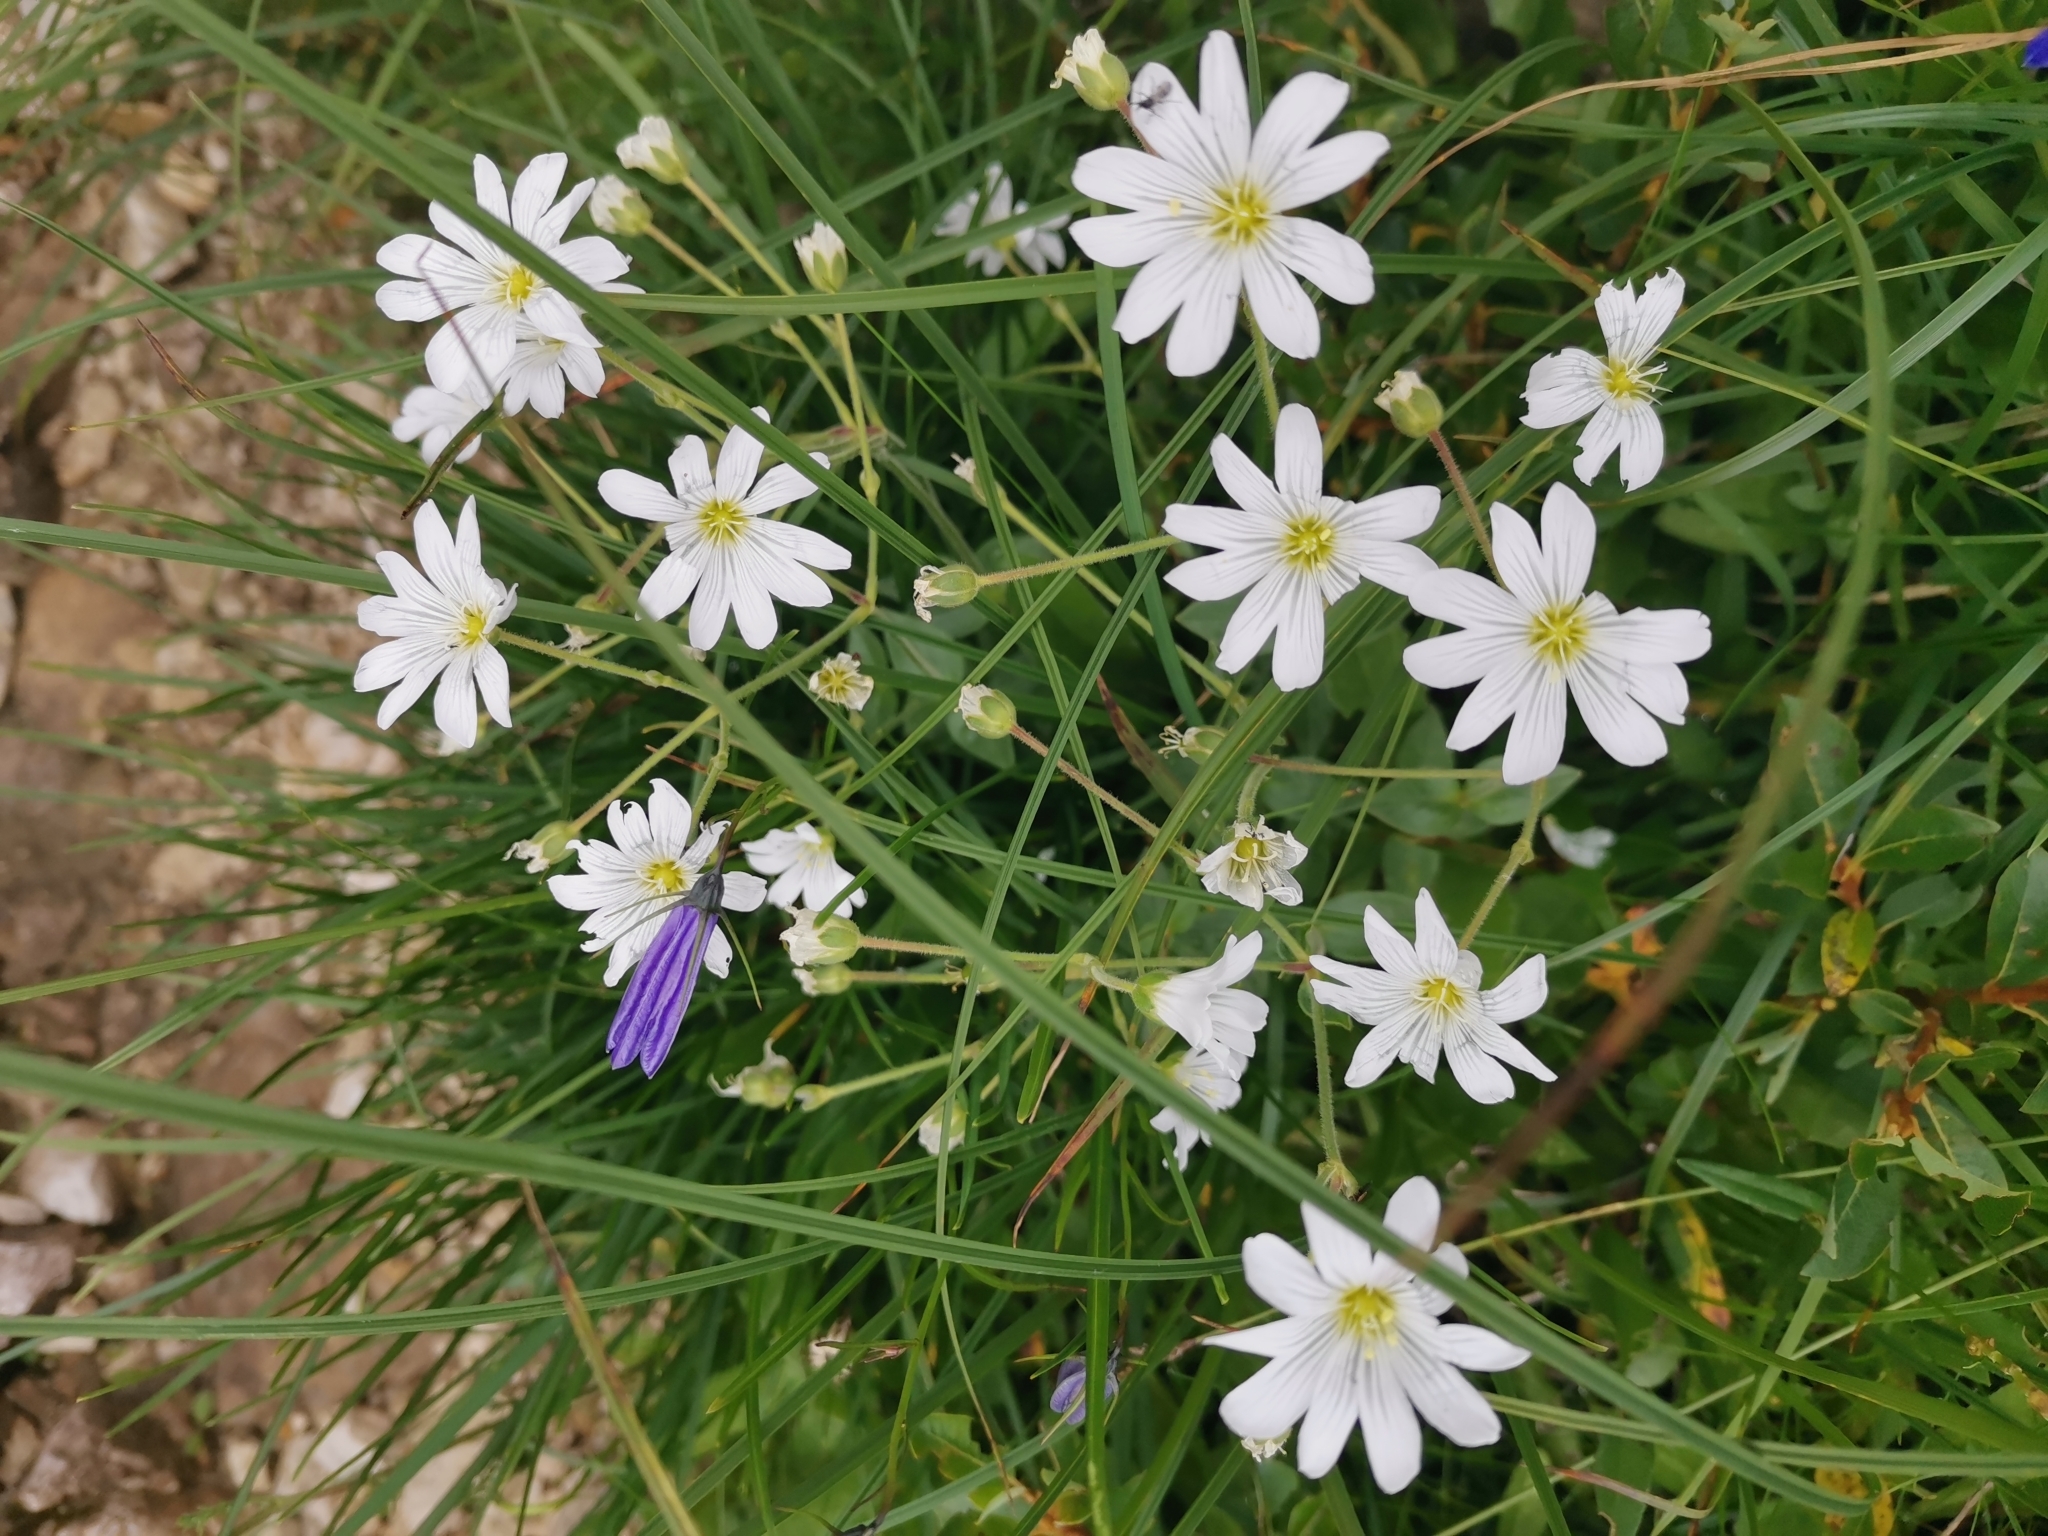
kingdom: Plantae
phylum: Tracheophyta
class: Magnoliopsida
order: Caryophyllales
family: Caryophyllaceae
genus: Cerastium
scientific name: Cerastium carinthiacum
